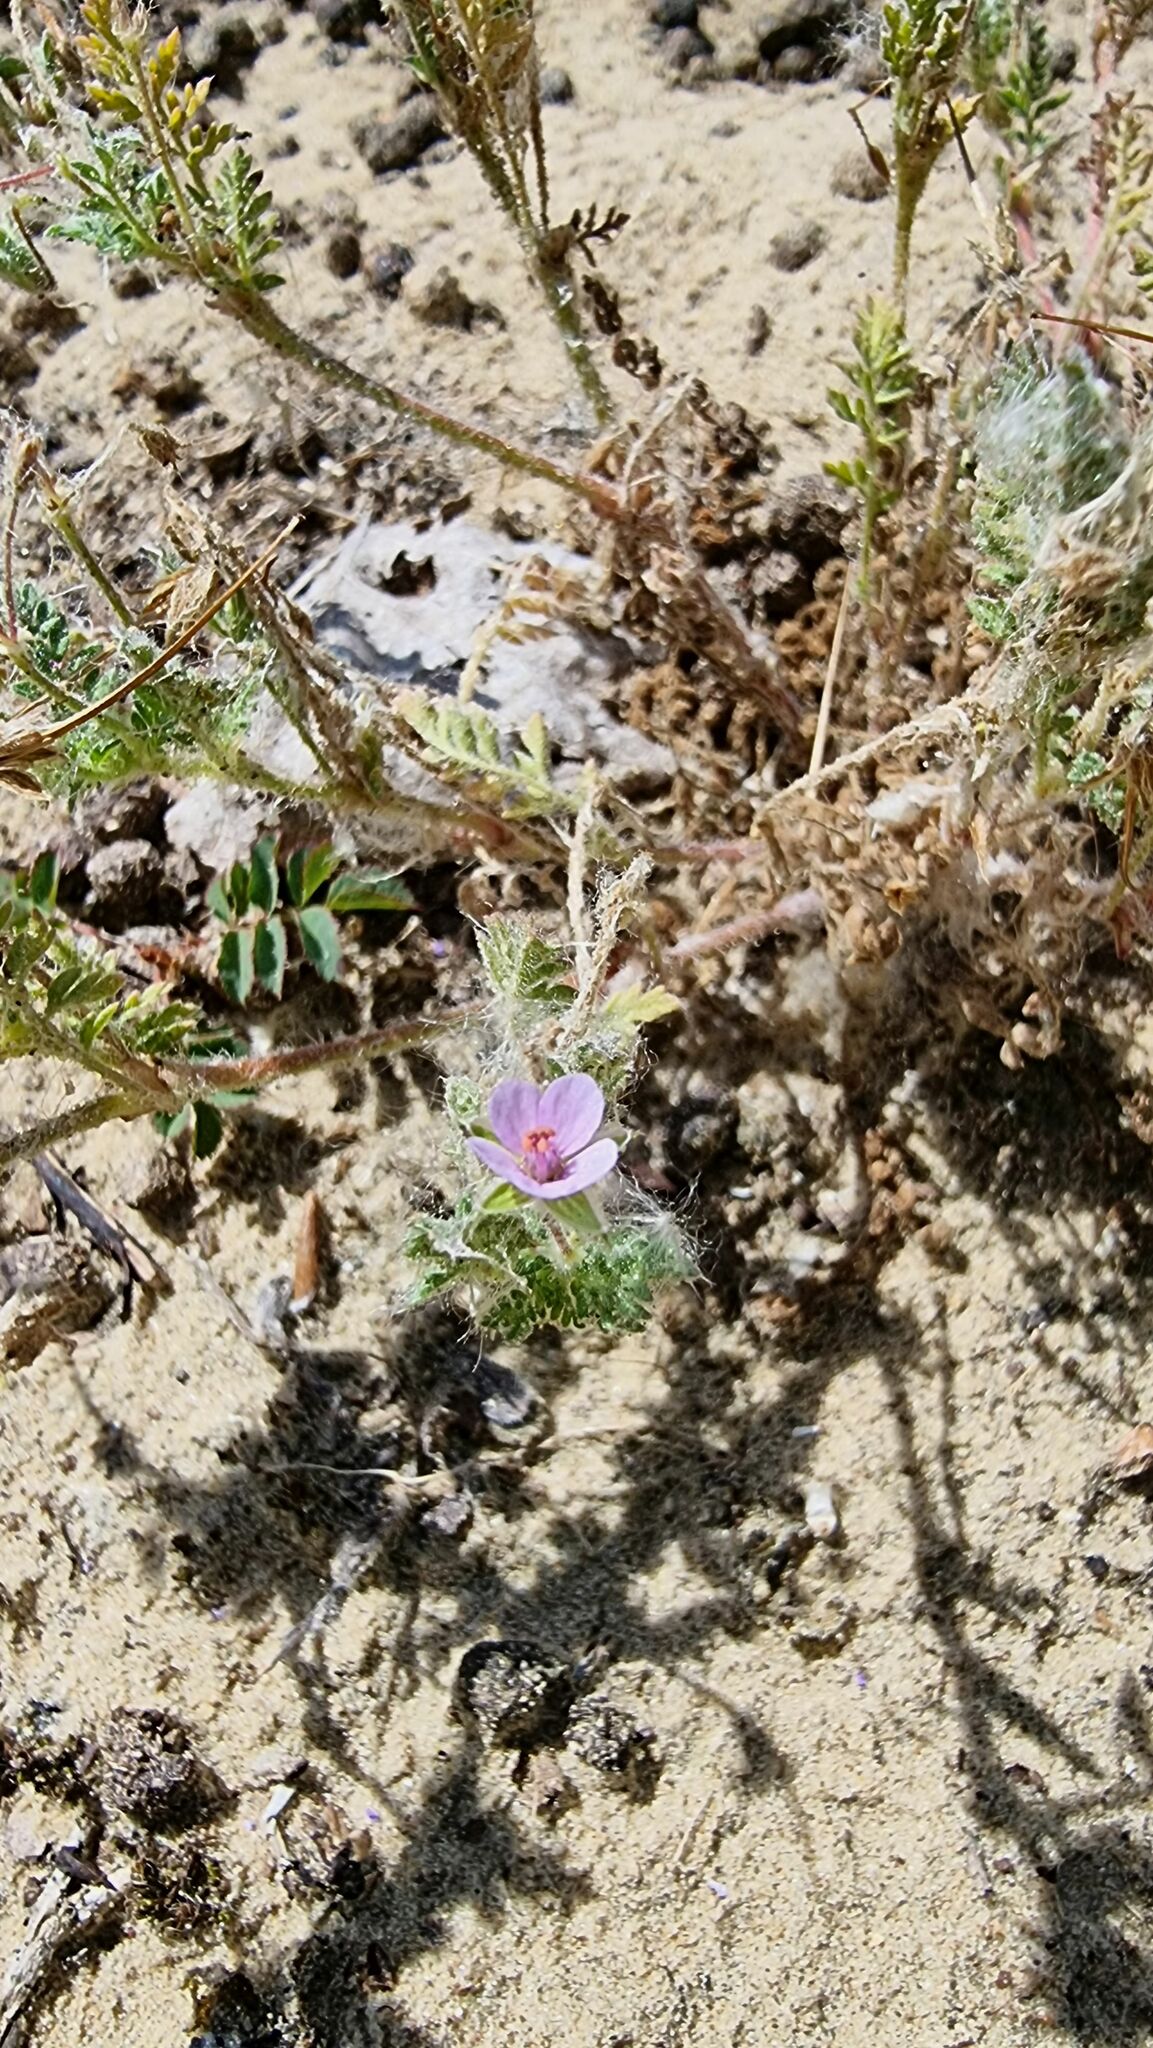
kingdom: Plantae
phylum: Tracheophyta
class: Magnoliopsida
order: Geraniales
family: Geraniaceae
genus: Erodium
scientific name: Erodium cicutarium
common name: Common stork's-bill
